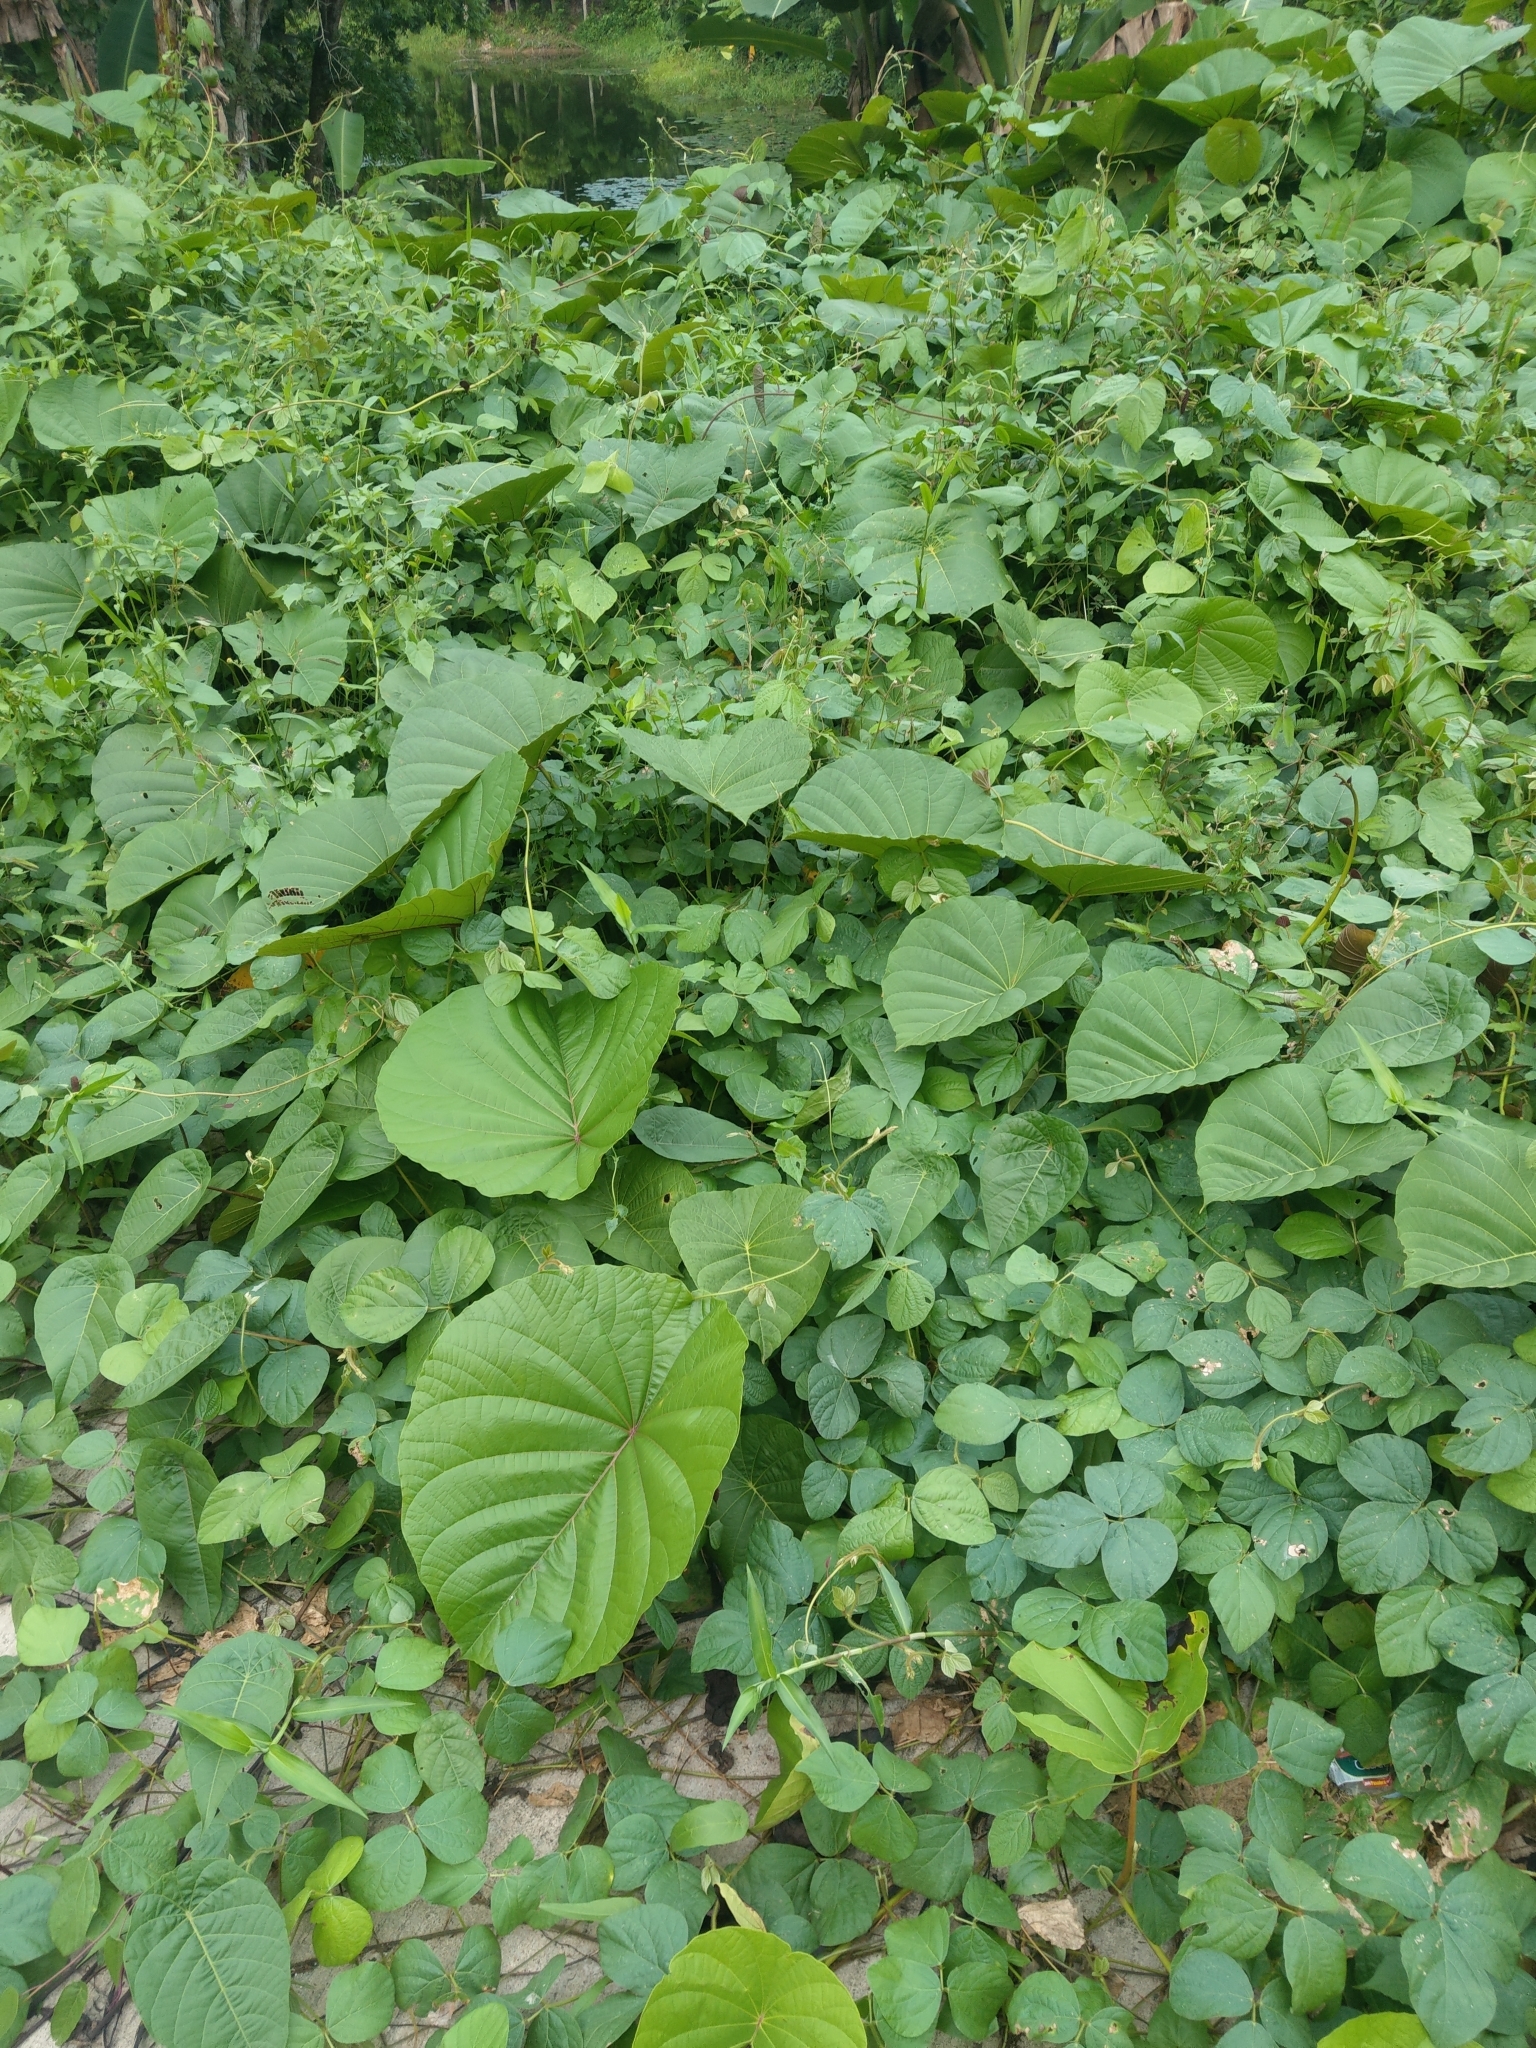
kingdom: Plantae
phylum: Tracheophyta
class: Magnoliopsida
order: Solanales
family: Convolvulaceae
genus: Decalobanthus
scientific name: Decalobanthus peltatus
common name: Merremia
